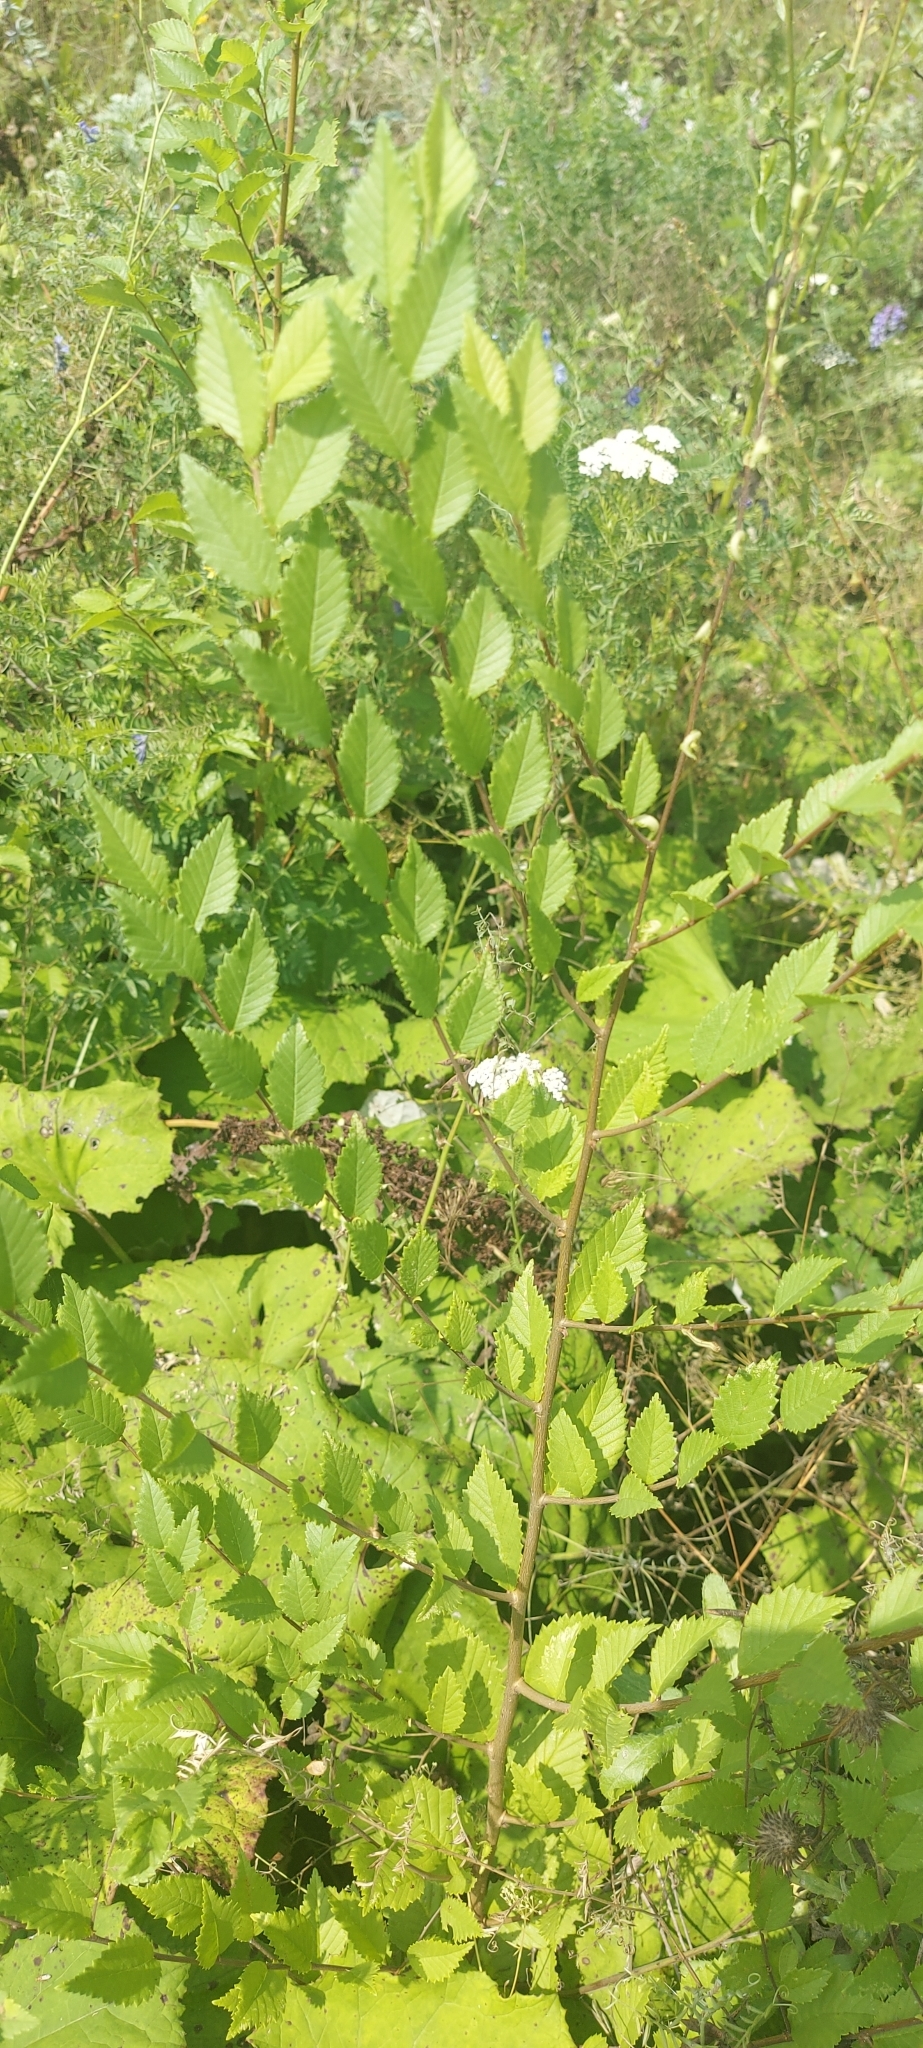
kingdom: Plantae
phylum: Tracheophyta
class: Magnoliopsida
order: Rosales
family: Ulmaceae
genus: Ulmus
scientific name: Ulmus pumila
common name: Siberian elm
